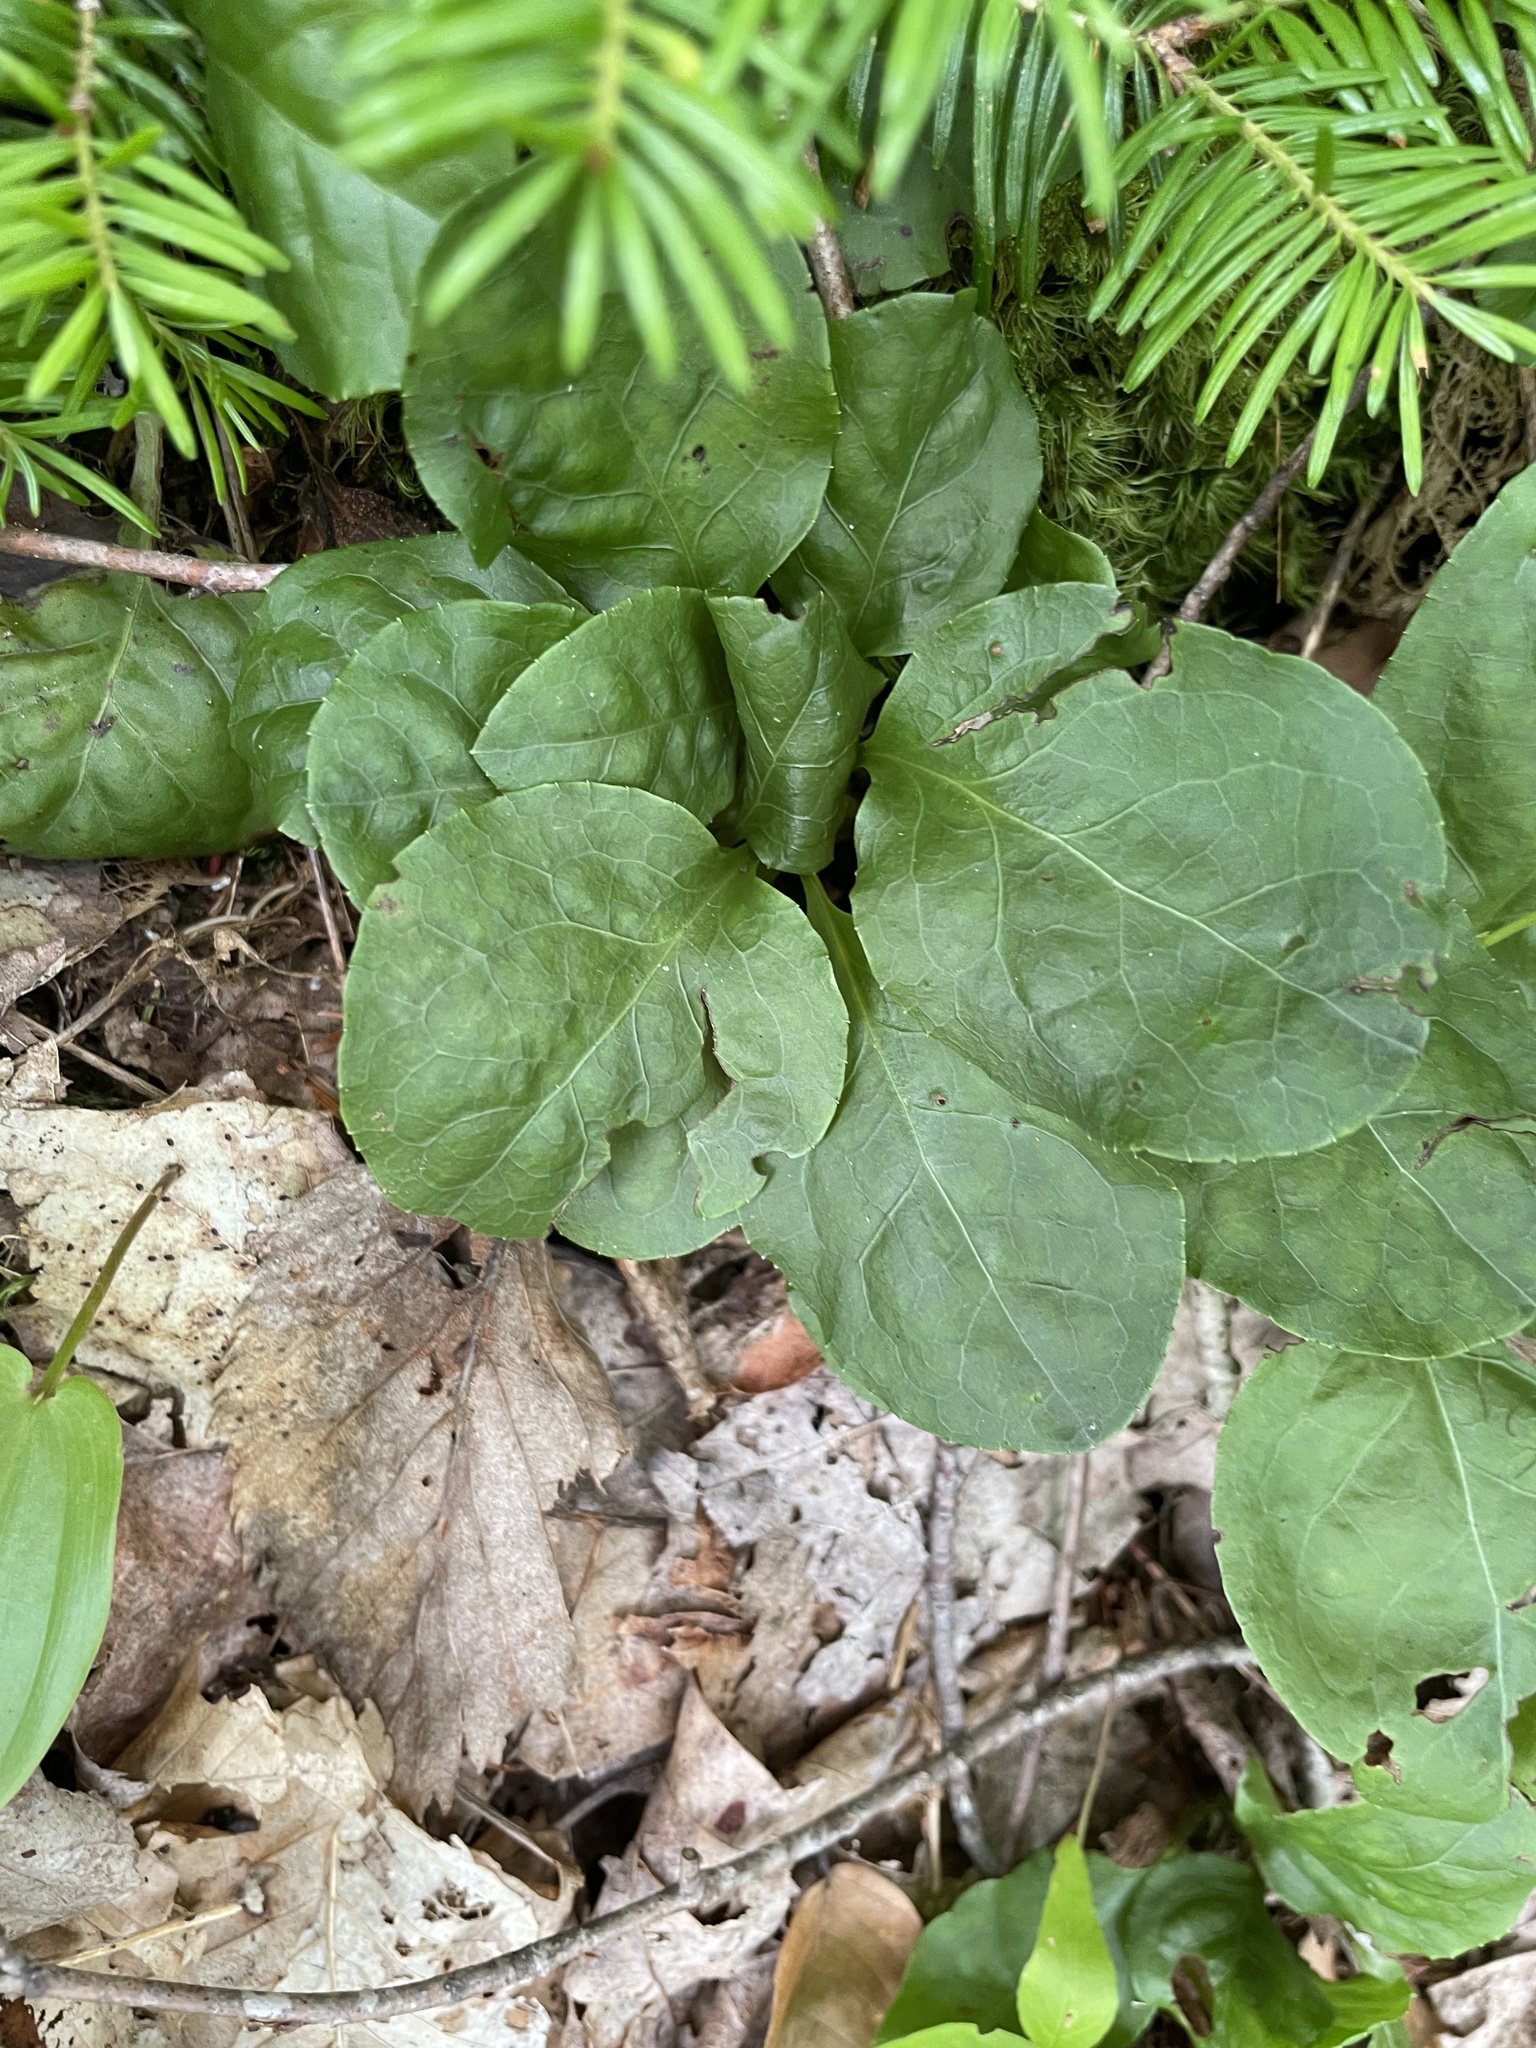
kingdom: Plantae
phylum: Tracheophyta
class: Magnoliopsida
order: Ericales
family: Ericaceae
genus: Pyrola
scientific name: Pyrola elliptica
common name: Shinleaf
